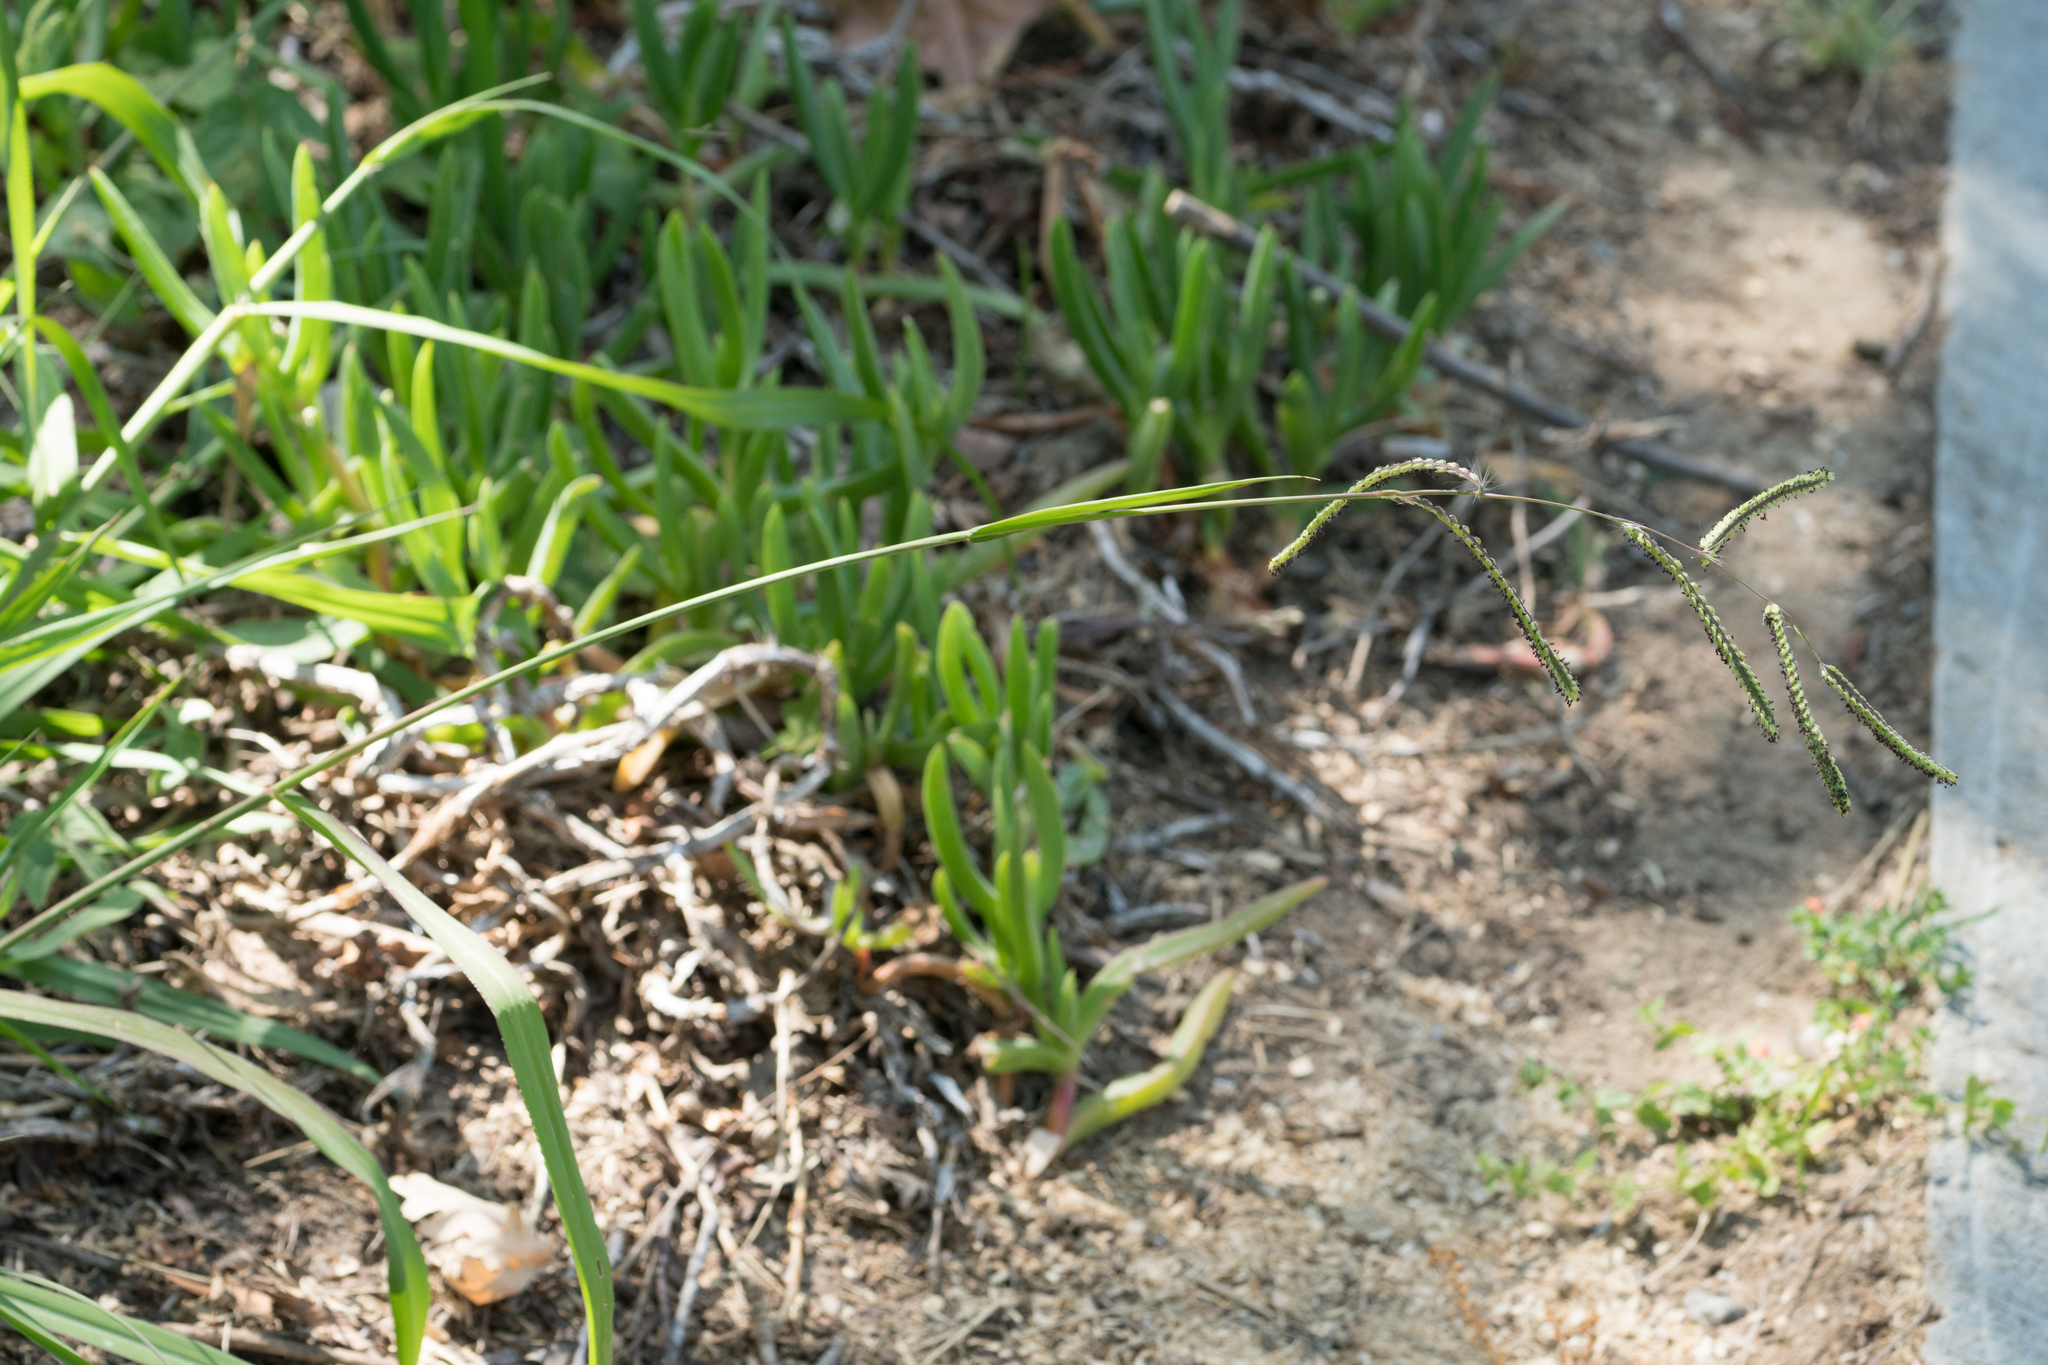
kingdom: Plantae
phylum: Tracheophyta
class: Liliopsida
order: Poales
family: Poaceae
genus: Paspalum
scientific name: Paspalum dilatatum
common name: Dallisgrass
